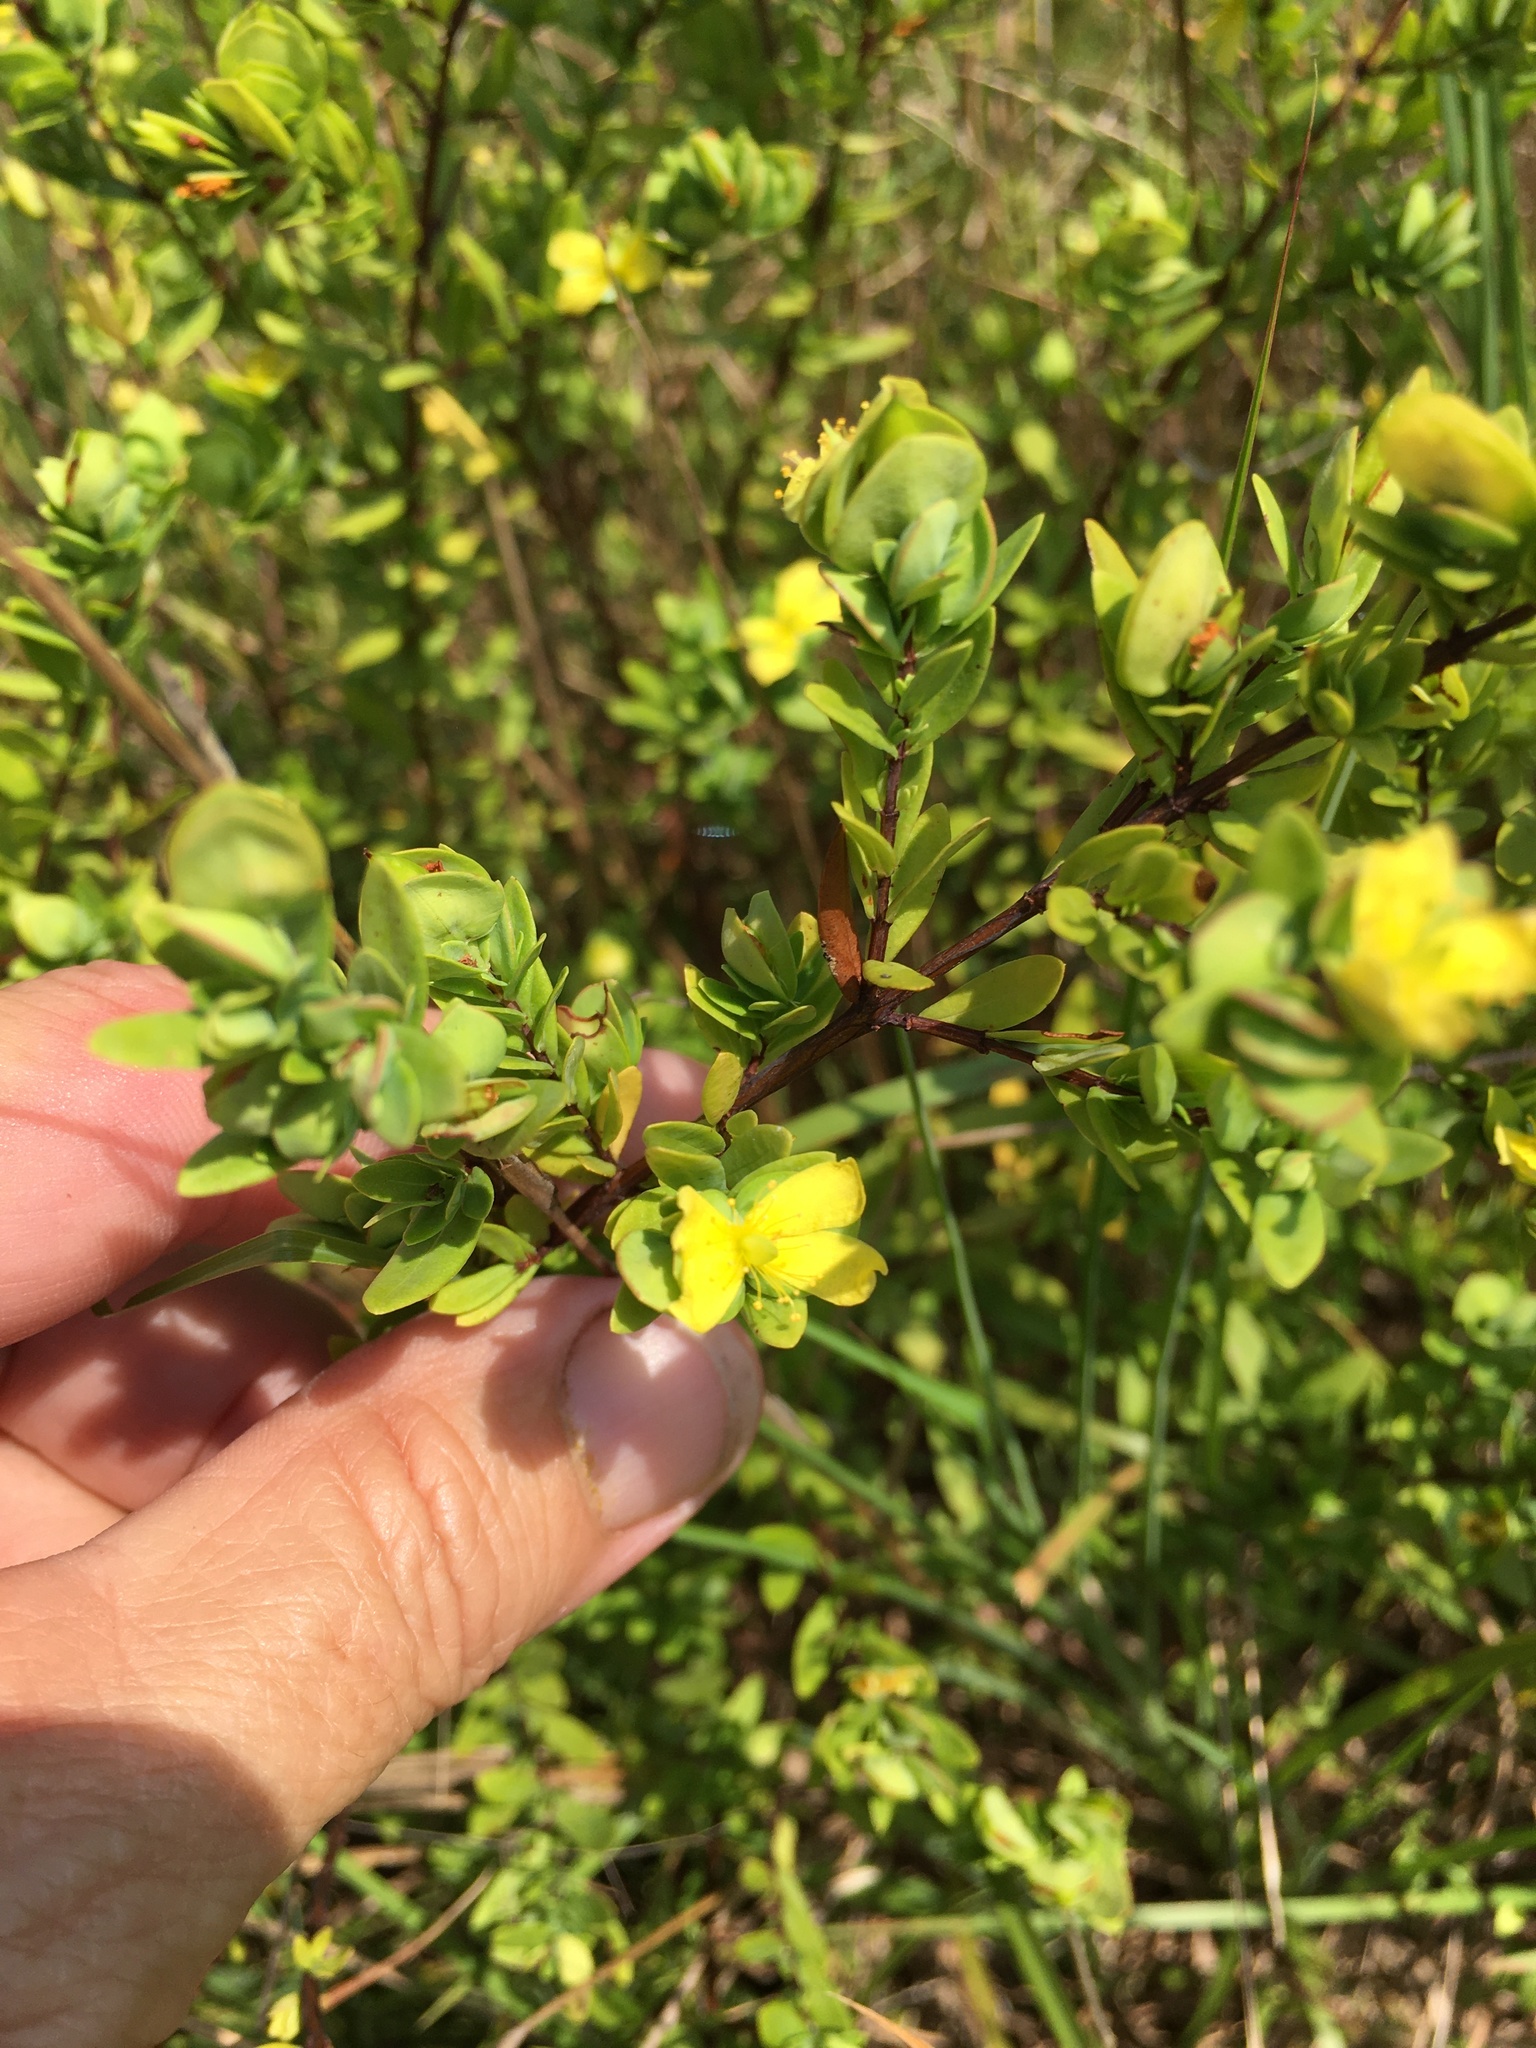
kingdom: Plantae
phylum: Tracheophyta
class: Magnoliopsida
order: Malpighiales
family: Hypericaceae
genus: Hypericum
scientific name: Hypericum hypericoides
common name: St. andrew's cross
